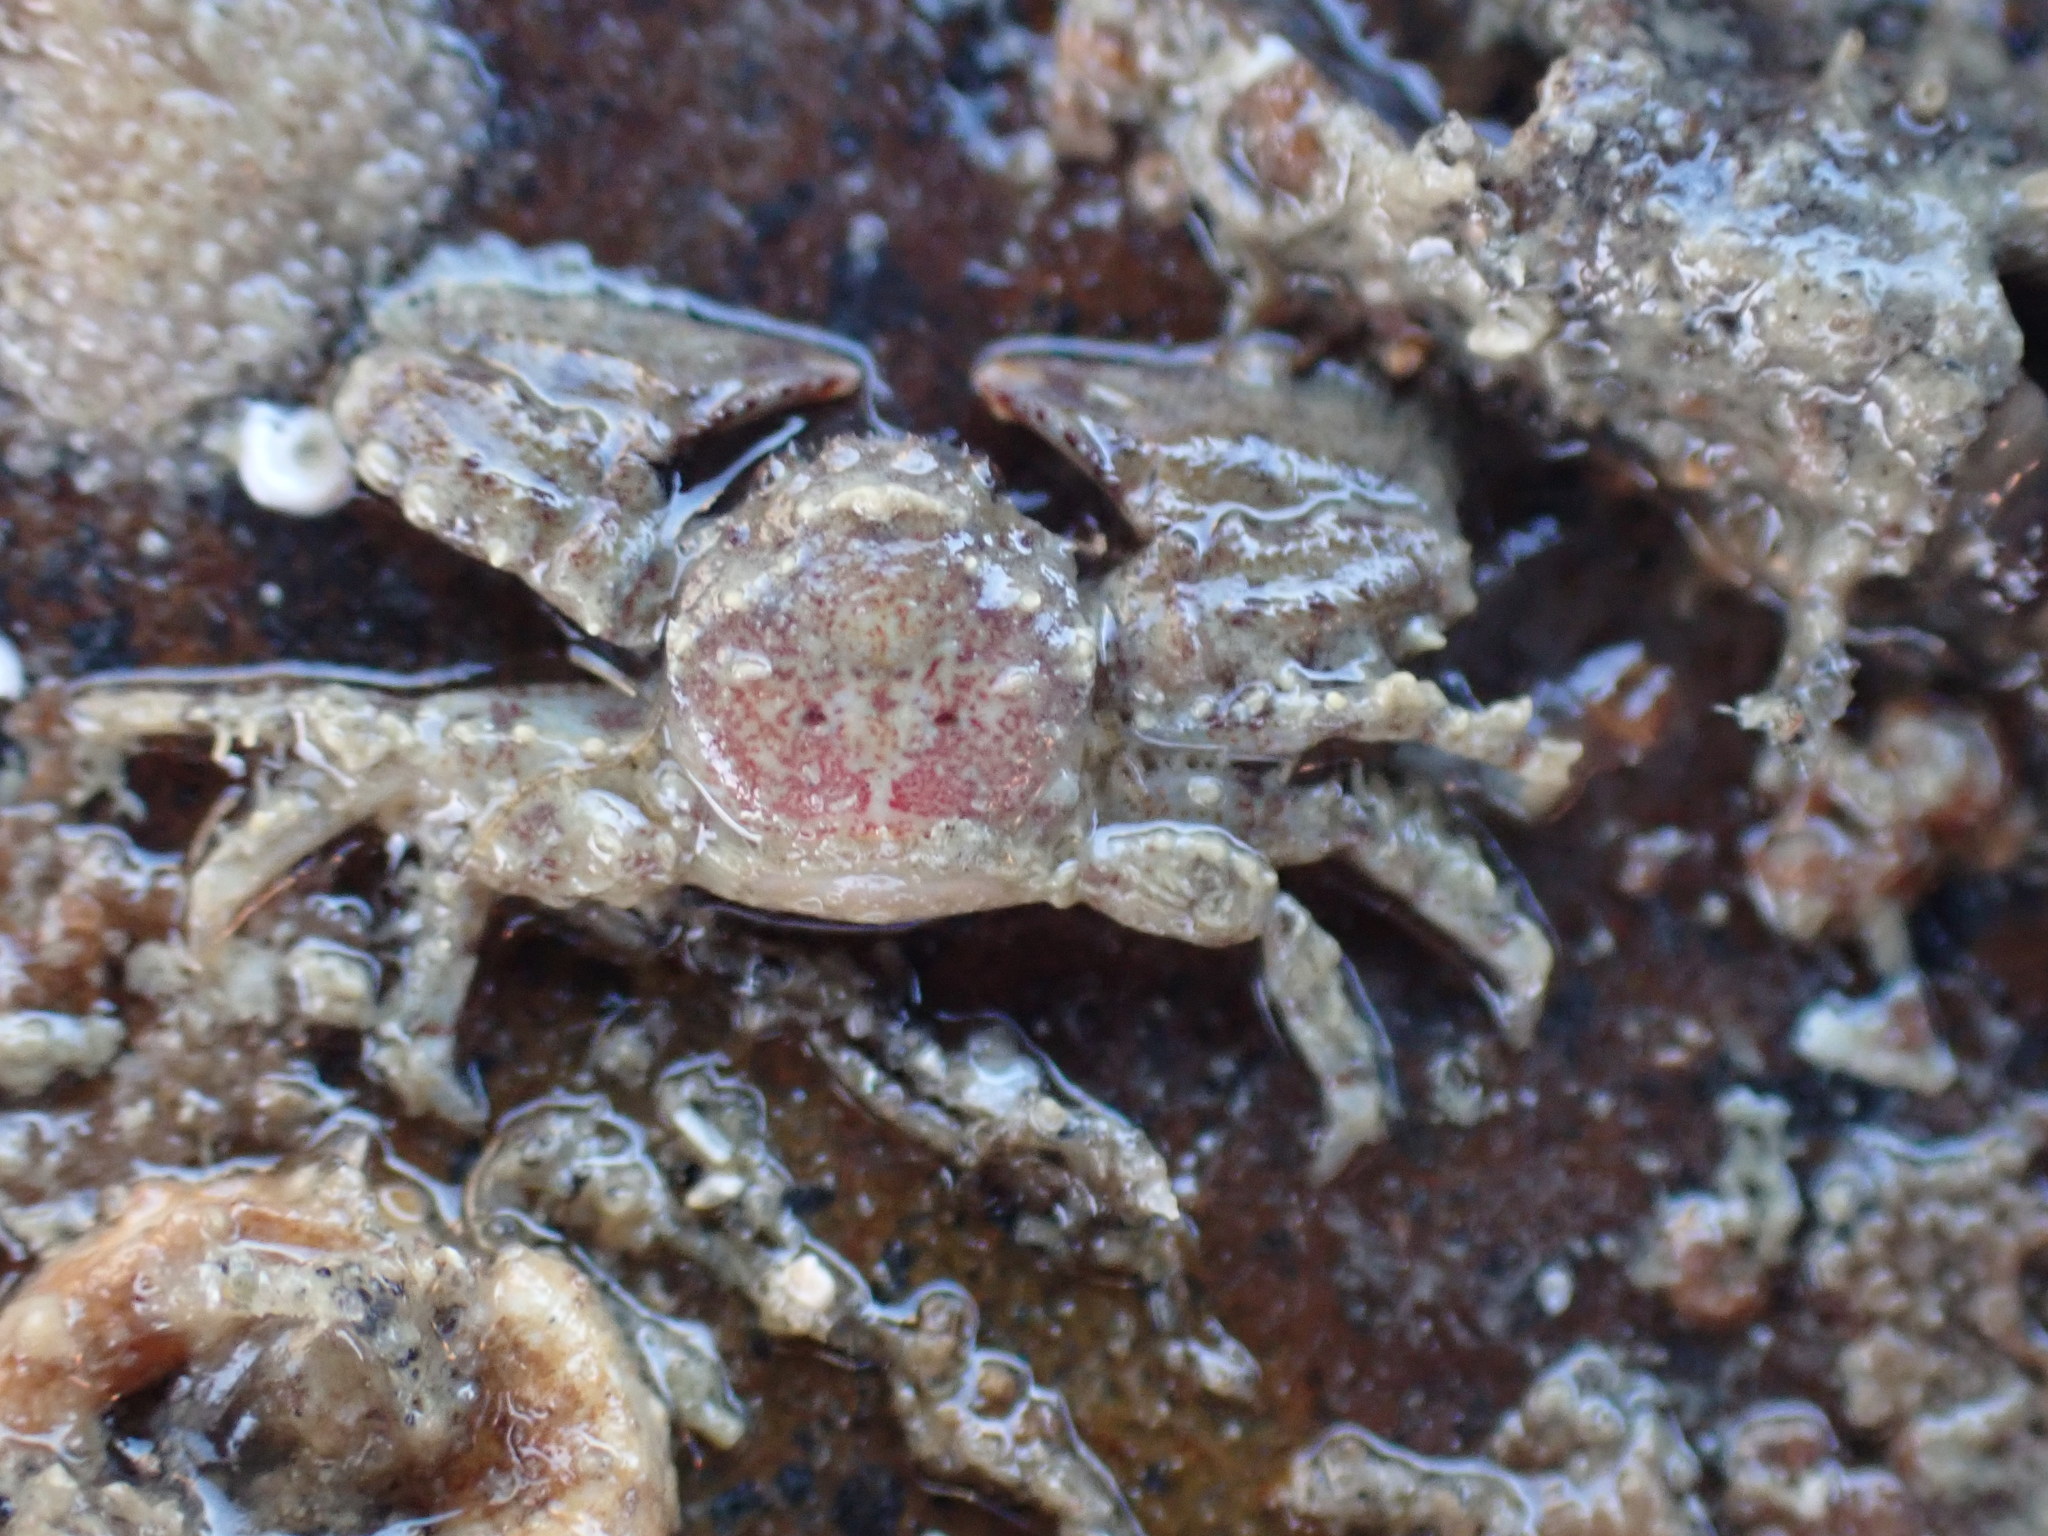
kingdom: Animalia
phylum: Arthropoda
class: Malacostraca
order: Decapoda
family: Porcellanidae
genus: Petrolisthes
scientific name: Petrolisthes novaezelandiae
